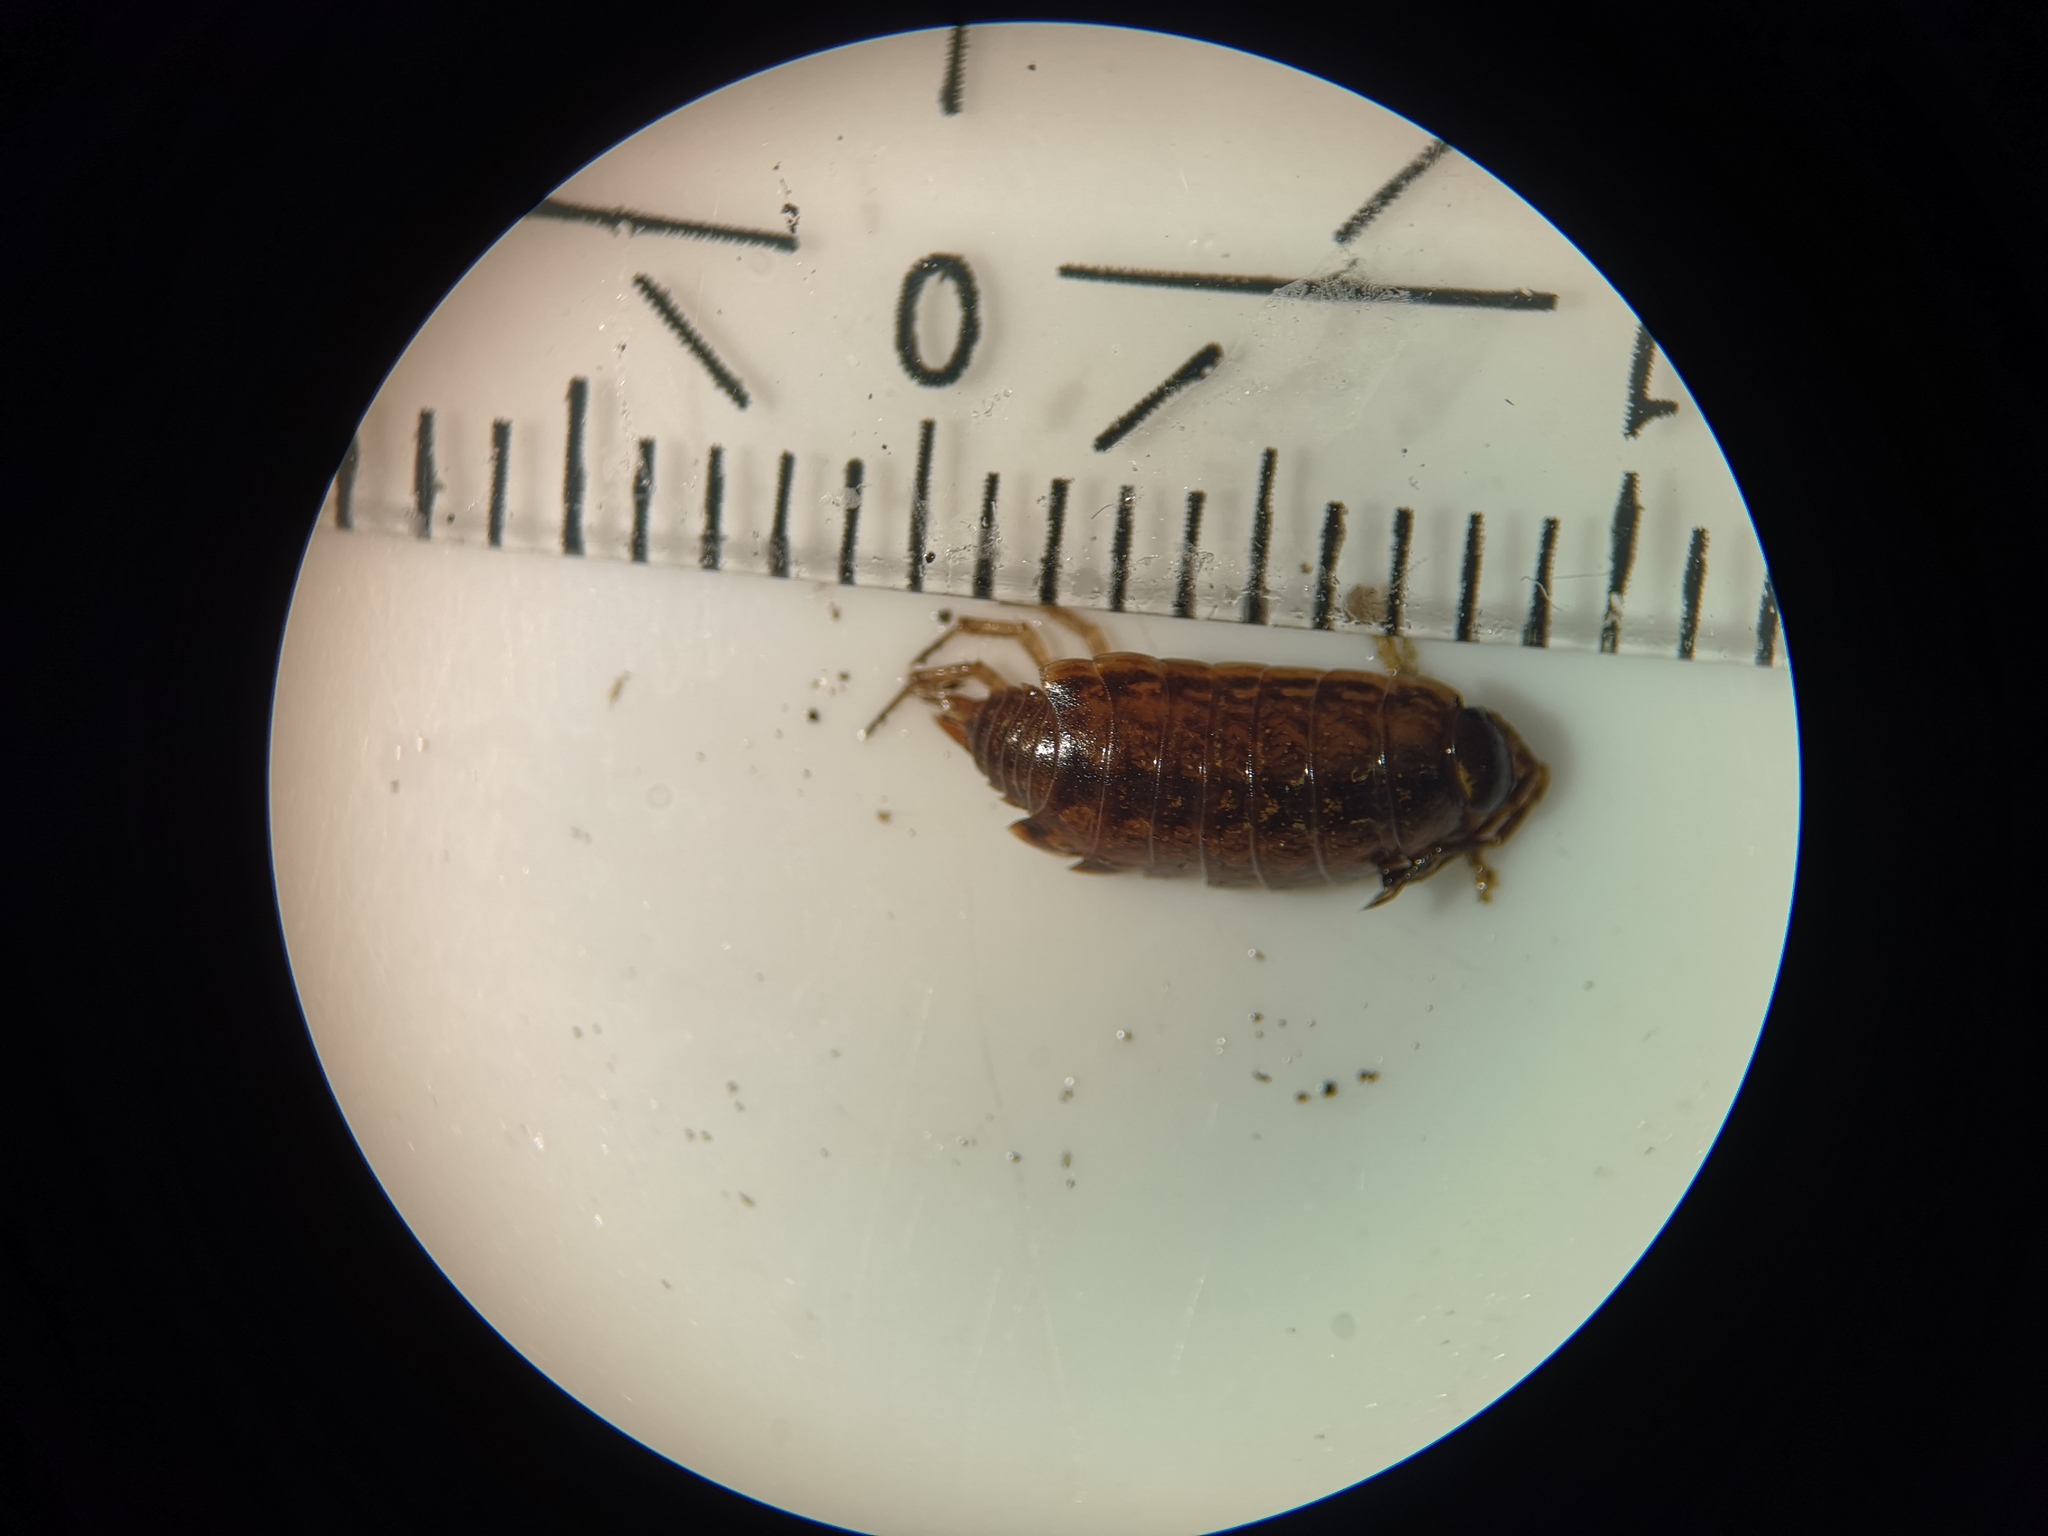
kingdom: Animalia
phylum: Arthropoda
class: Malacostraca
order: Isopoda
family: Philosciidae
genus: Philoscia
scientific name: Philoscia muscorum
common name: Common striped woodlouse
